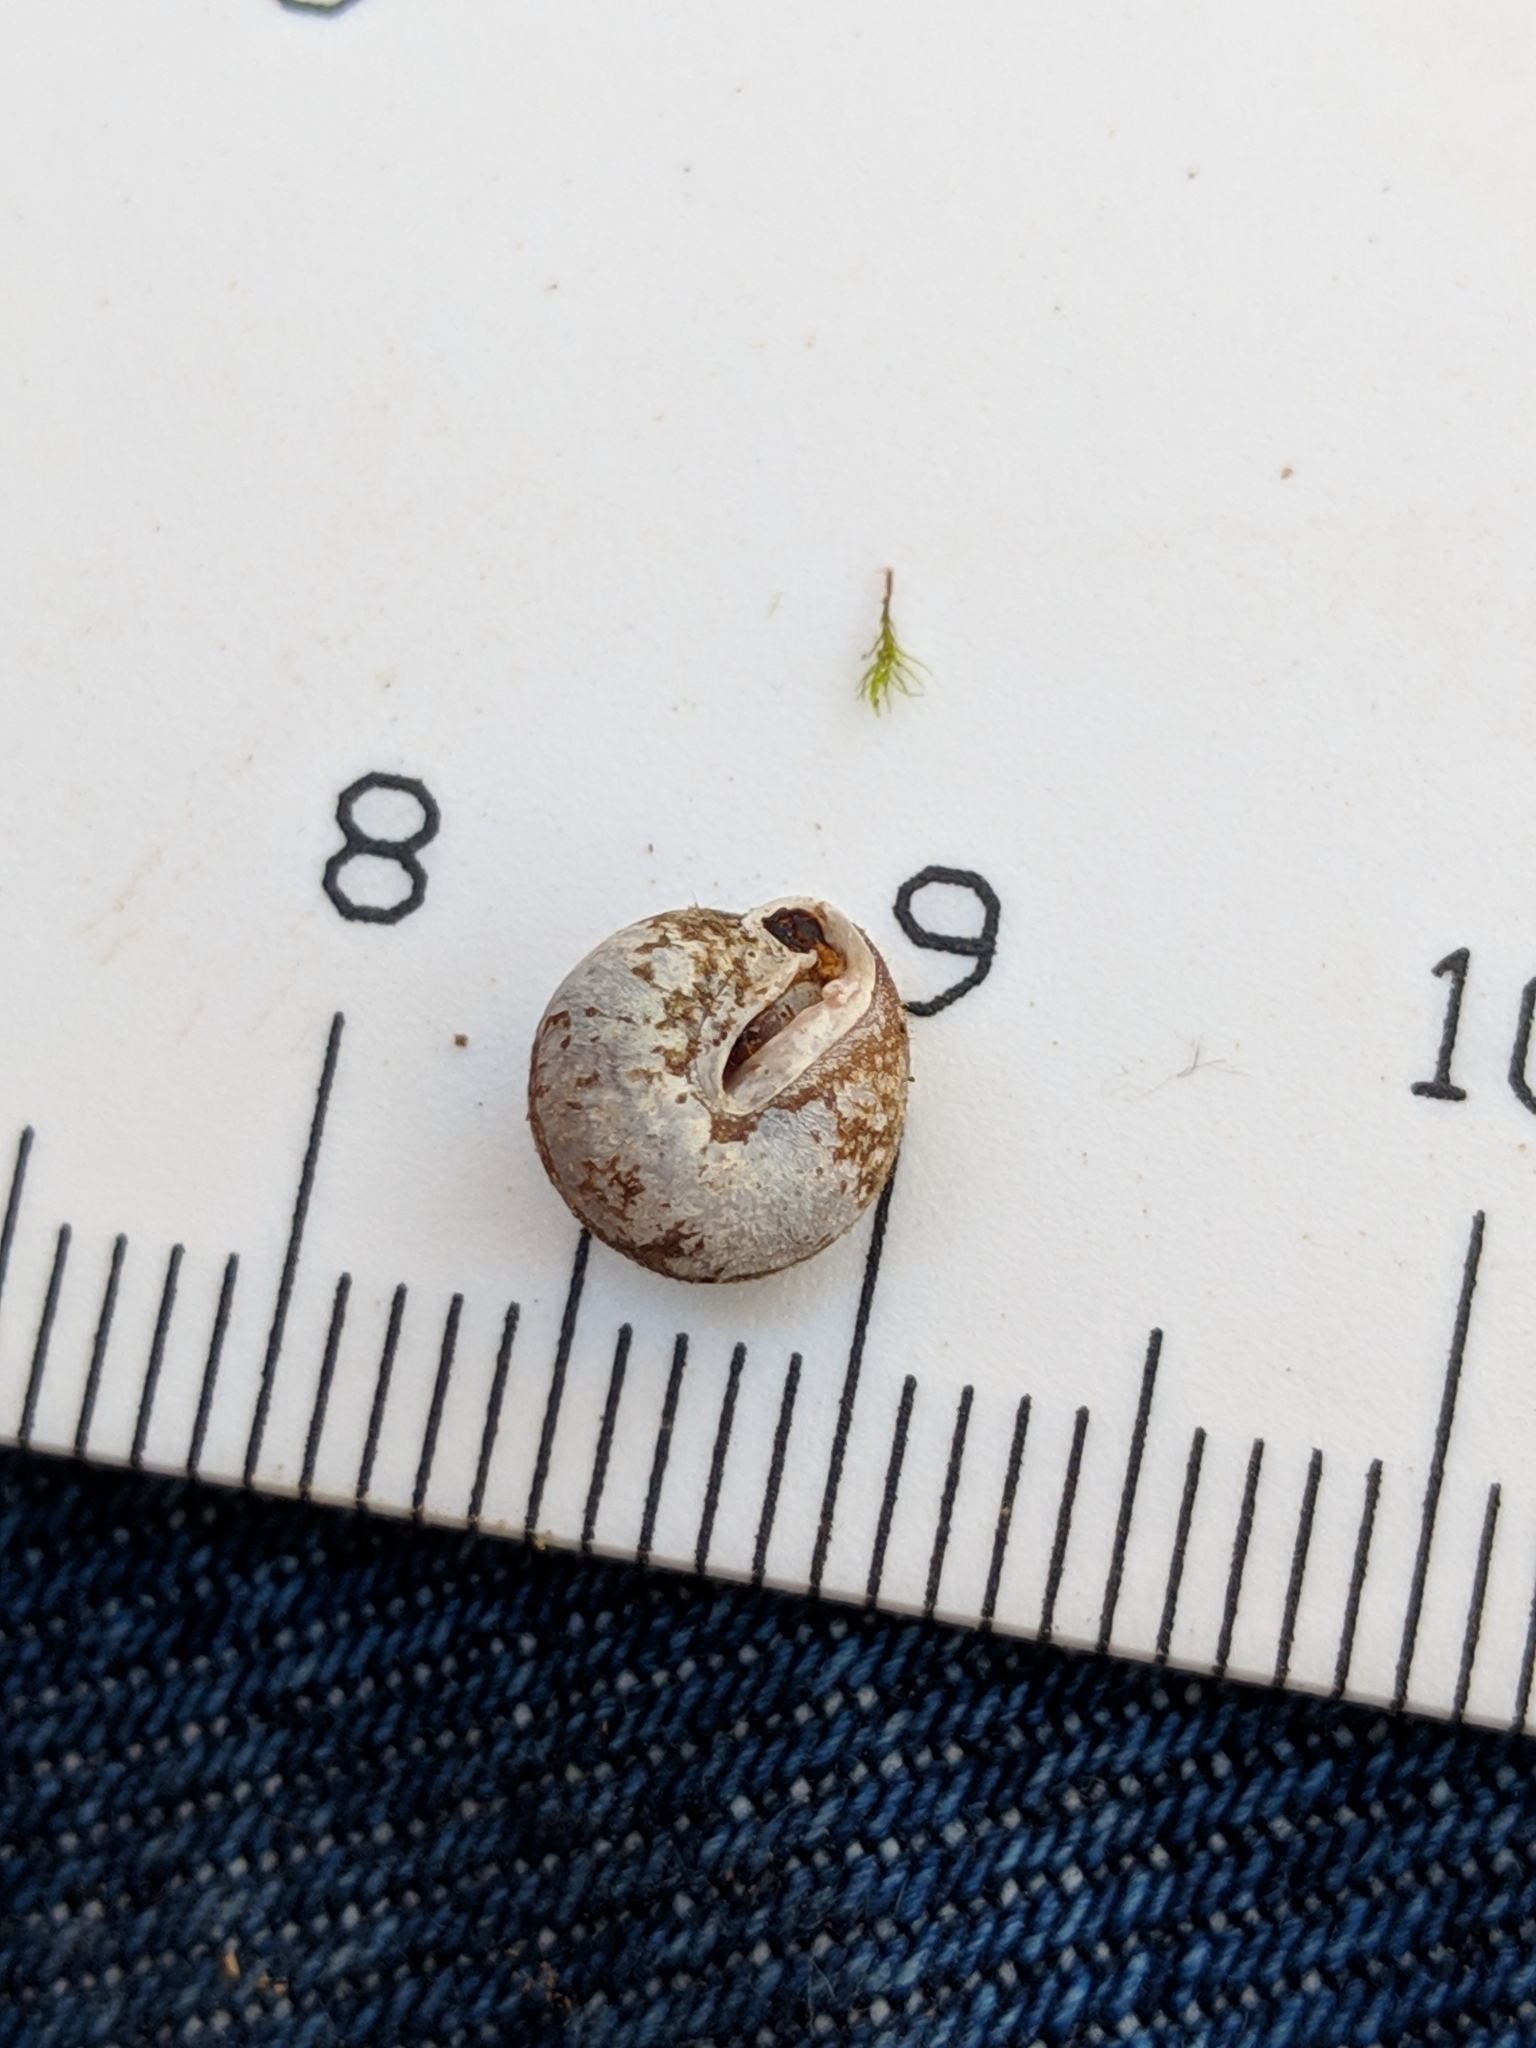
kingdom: Animalia
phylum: Mollusca
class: Gastropoda
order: Stylommatophora
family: Polygyridae
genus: Stenotrema
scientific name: Stenotrema hirsutum
